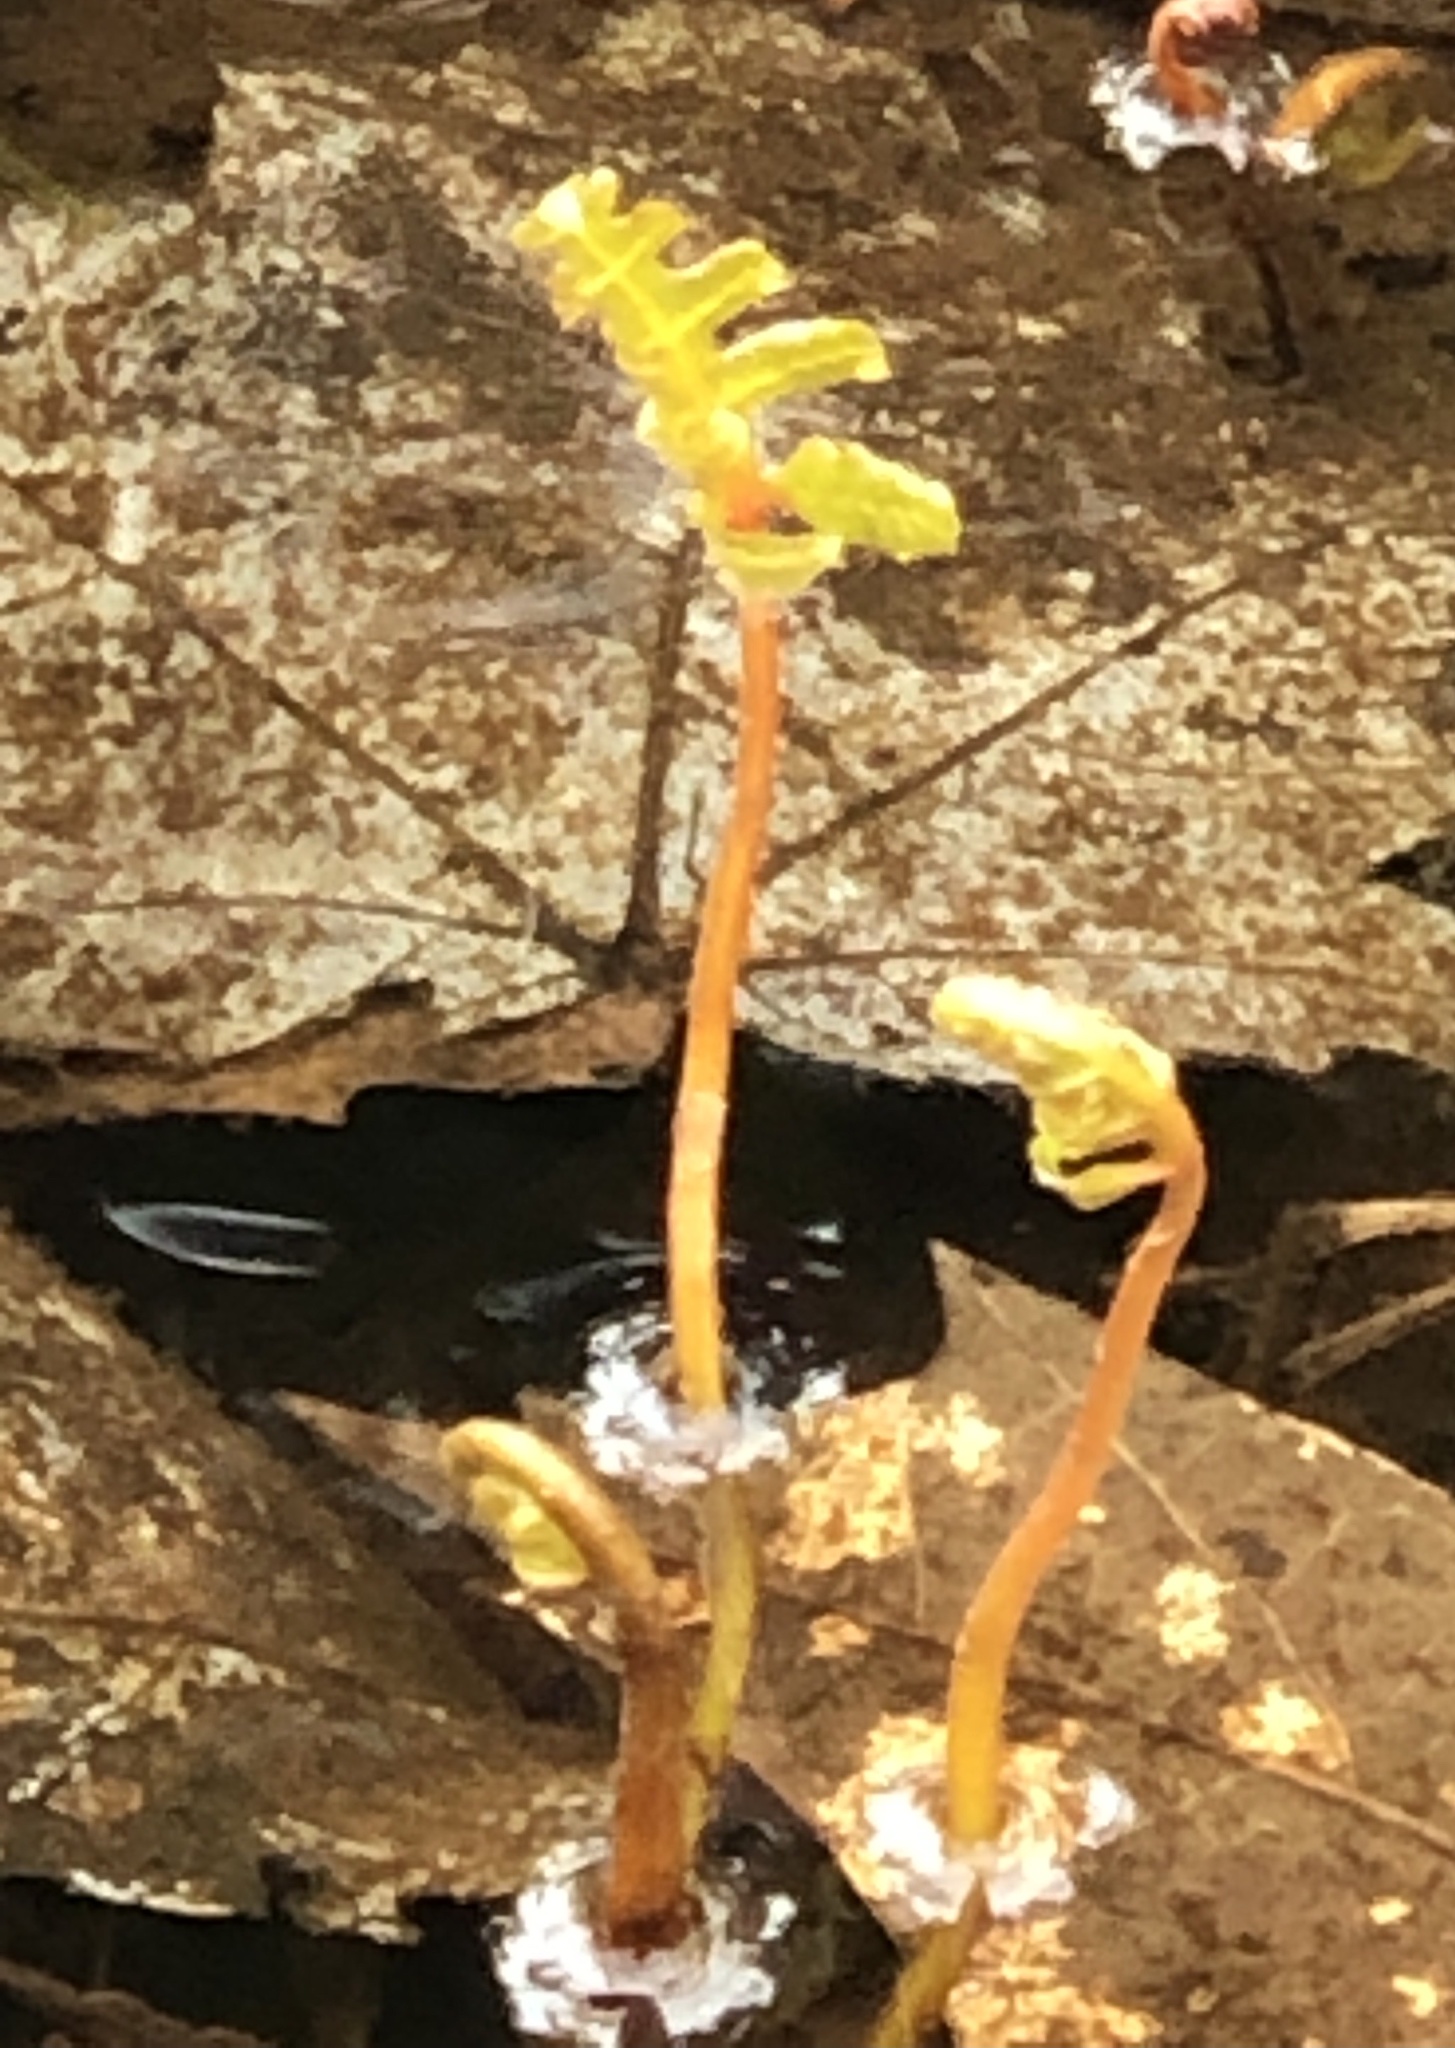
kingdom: Plantae
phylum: Tracheophyta
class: Polypodiopsida
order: Polypodiales
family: Onocleaceae
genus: Onoclea
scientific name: Onoclea sensibilis
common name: Sensitive fern
